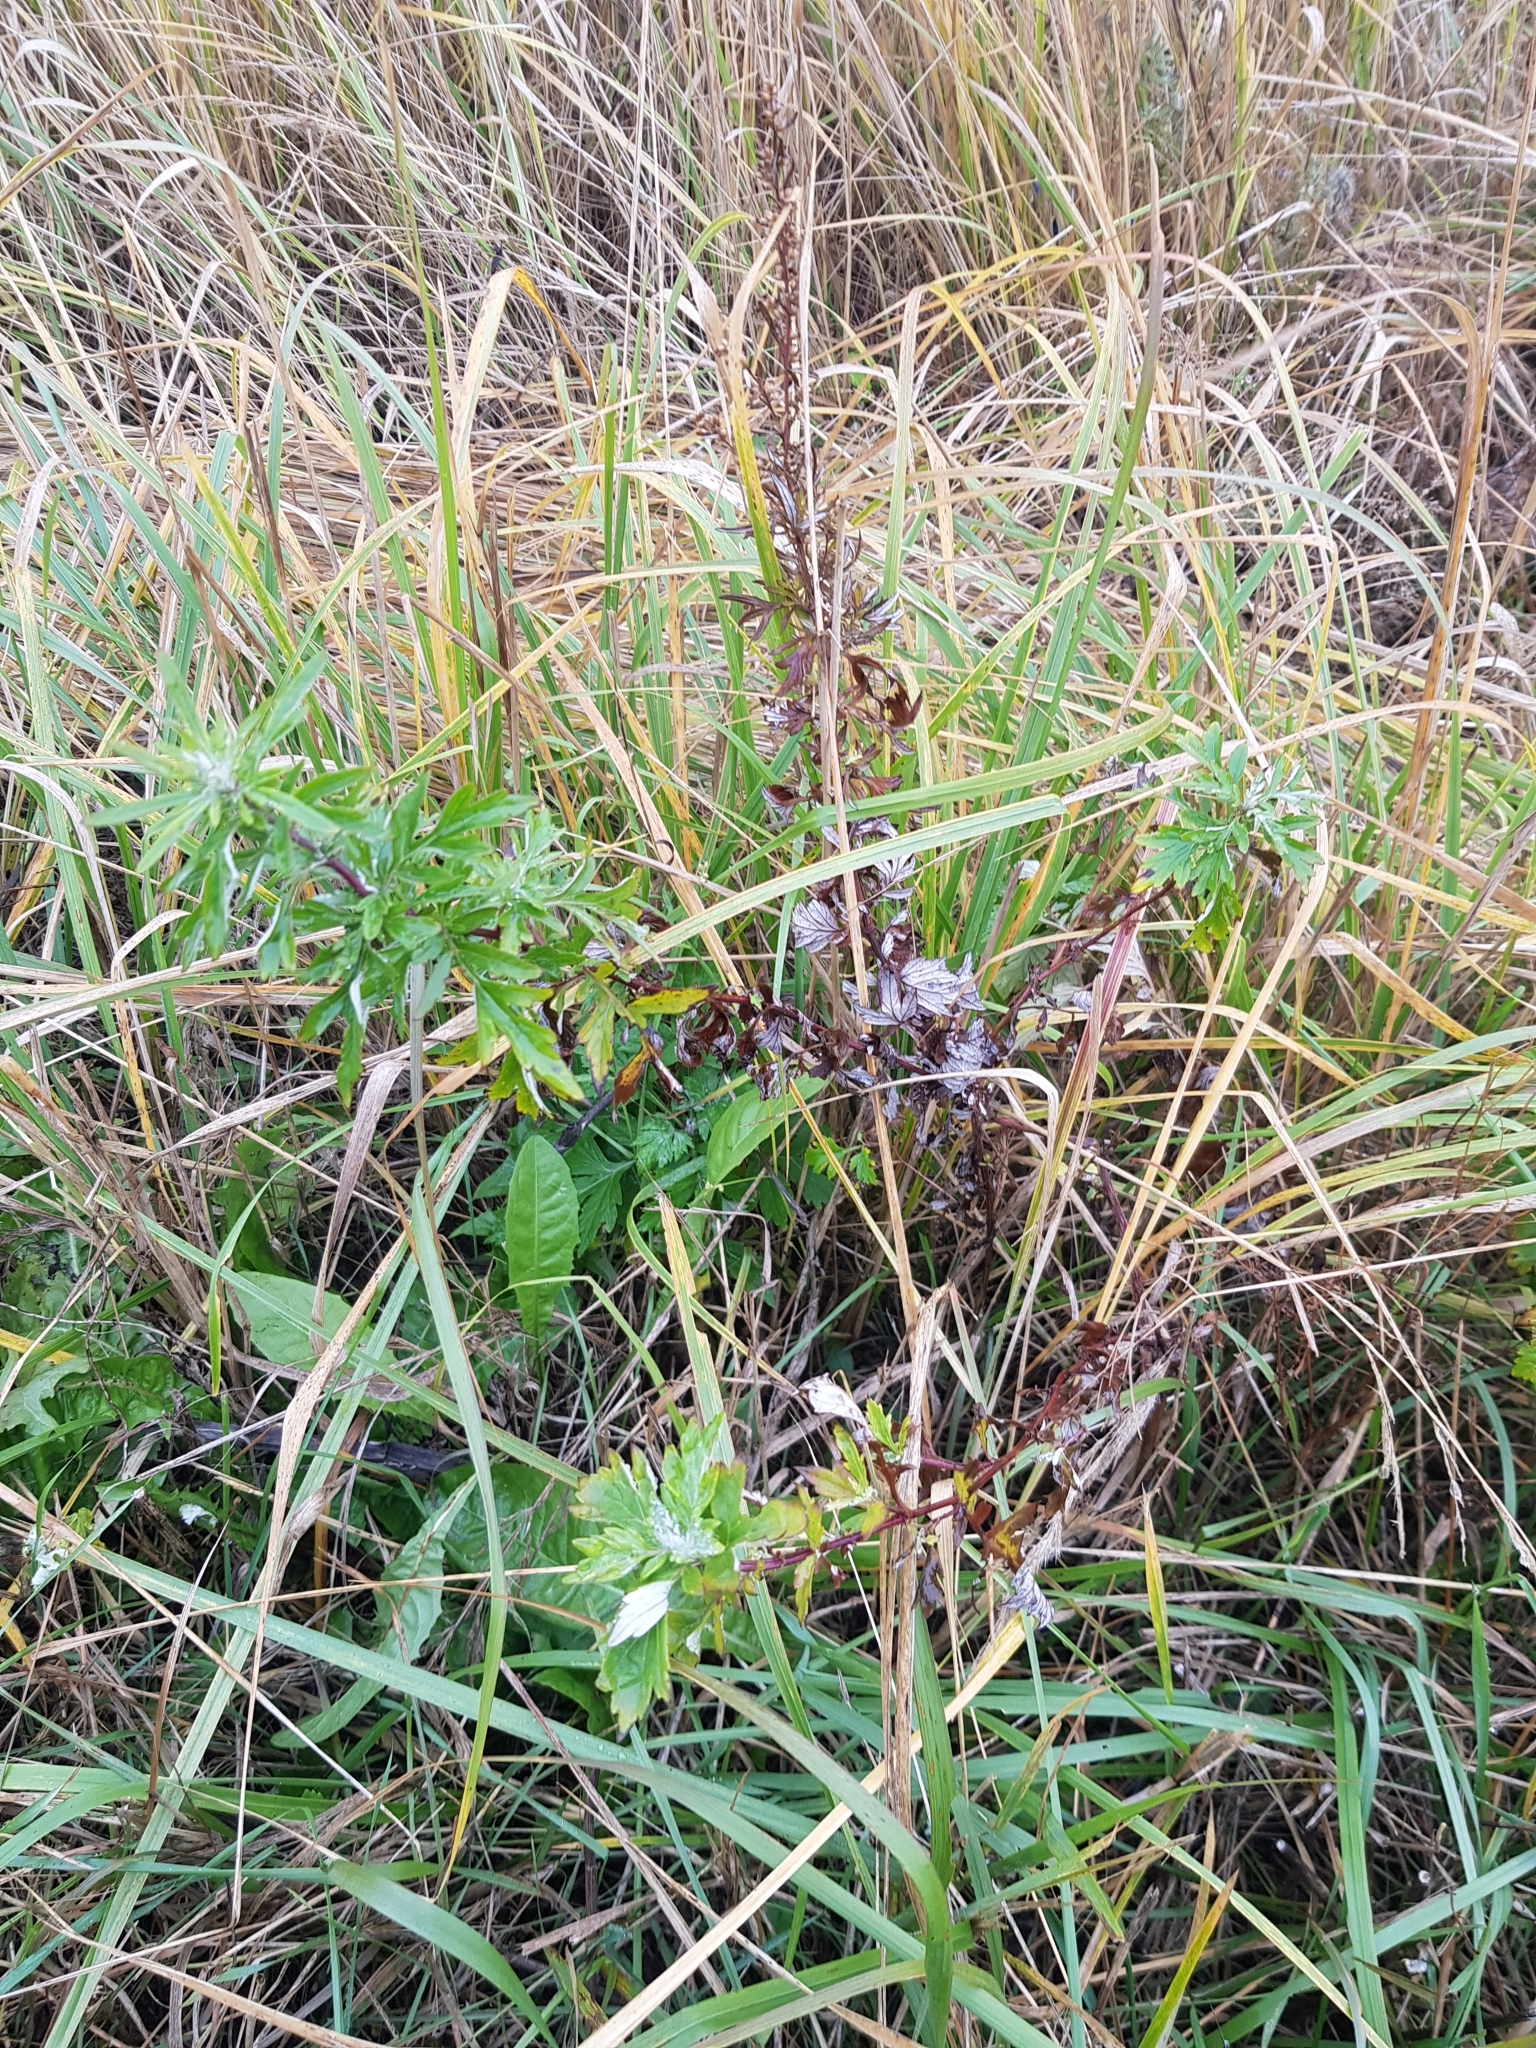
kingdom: Plantae
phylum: Tracheophyta
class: Magnoliopsida
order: Asterales
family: Asteraceae
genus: Artemisia
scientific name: Artemisia vulgaris
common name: Mugwort
